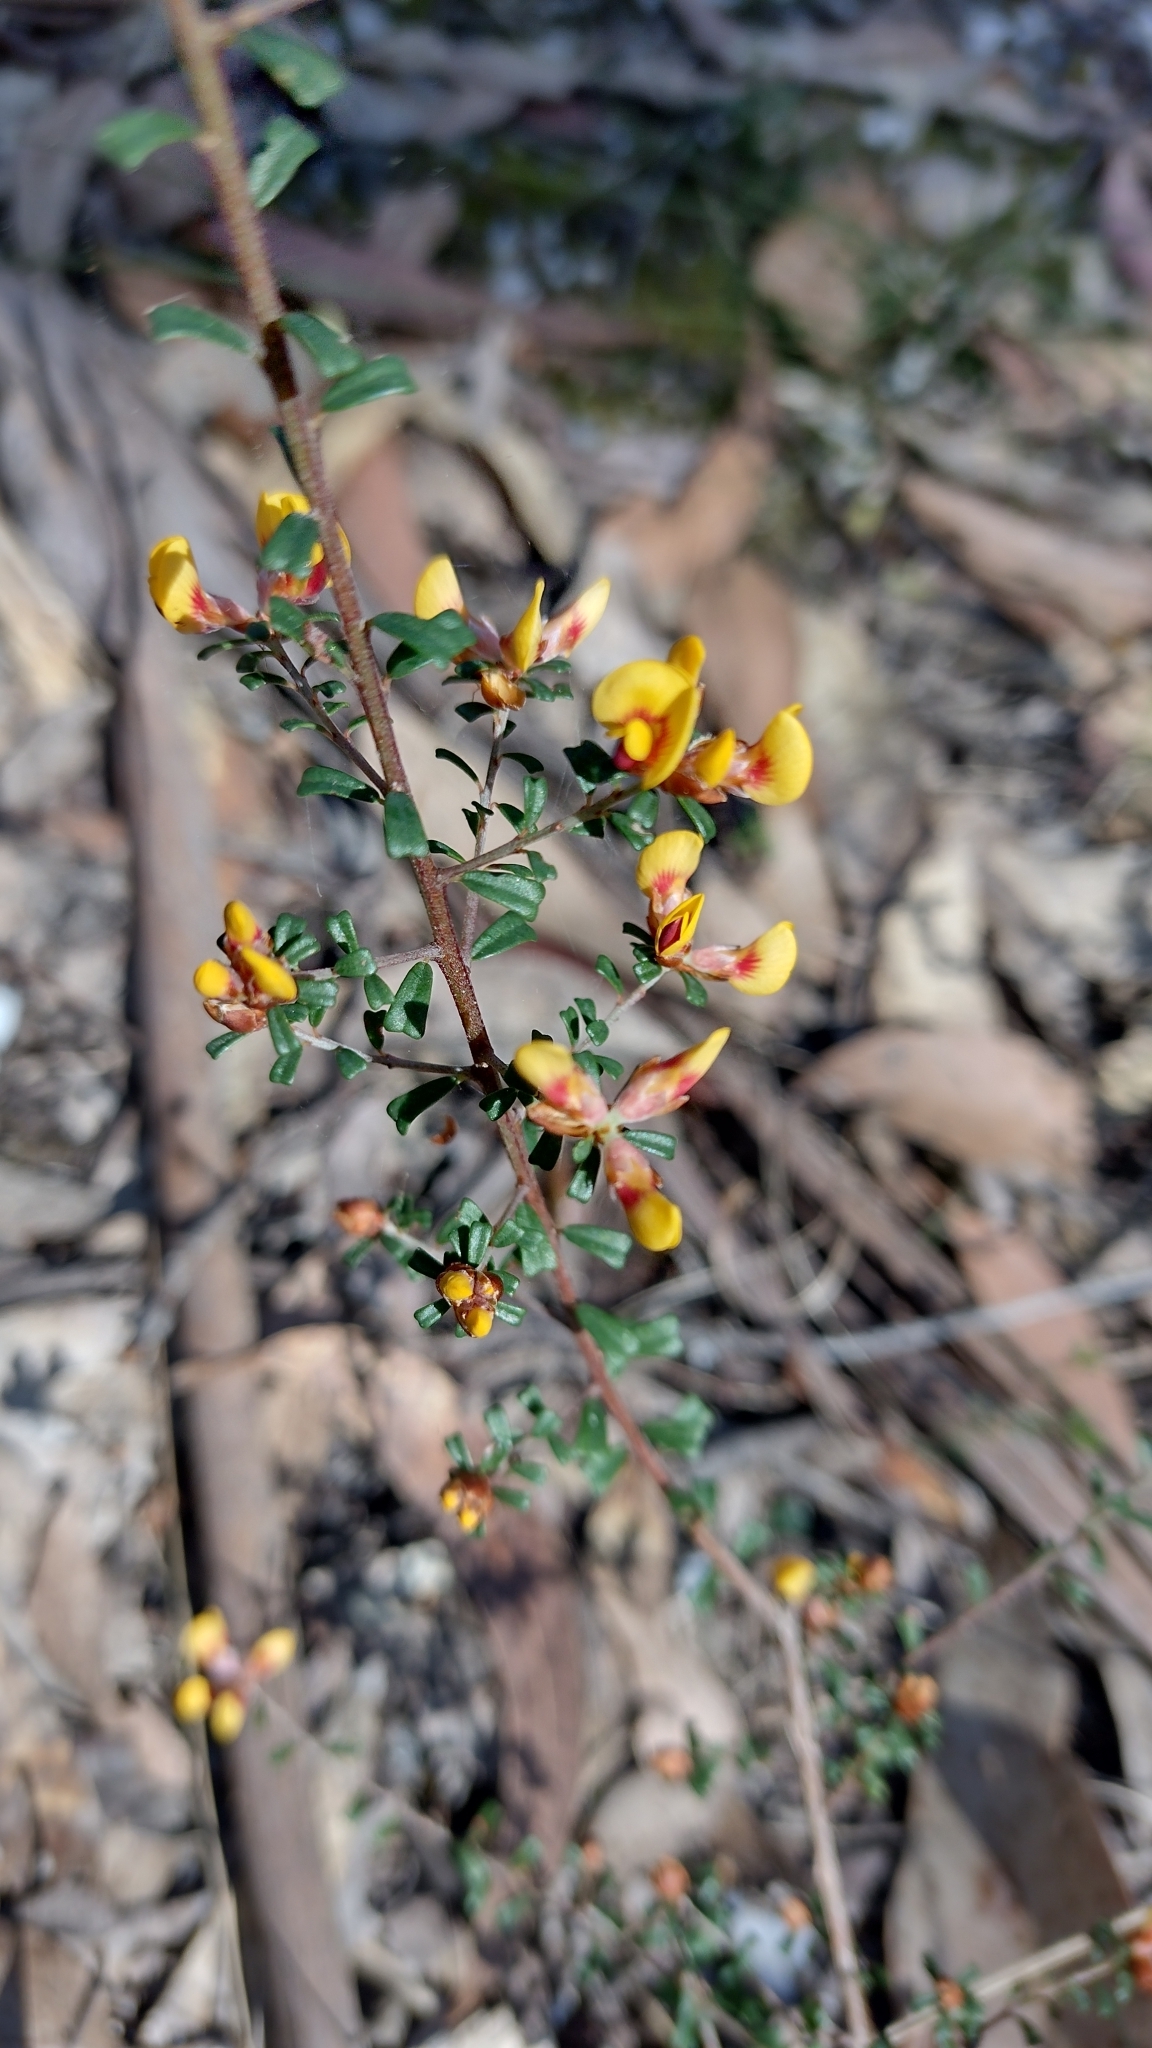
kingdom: Plantae
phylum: Tracheophyta
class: Magnoliopsida
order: Fabales
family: Fabaceae
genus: Pultenaea
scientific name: Pultenaea retusa
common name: Blunt bush-pea
